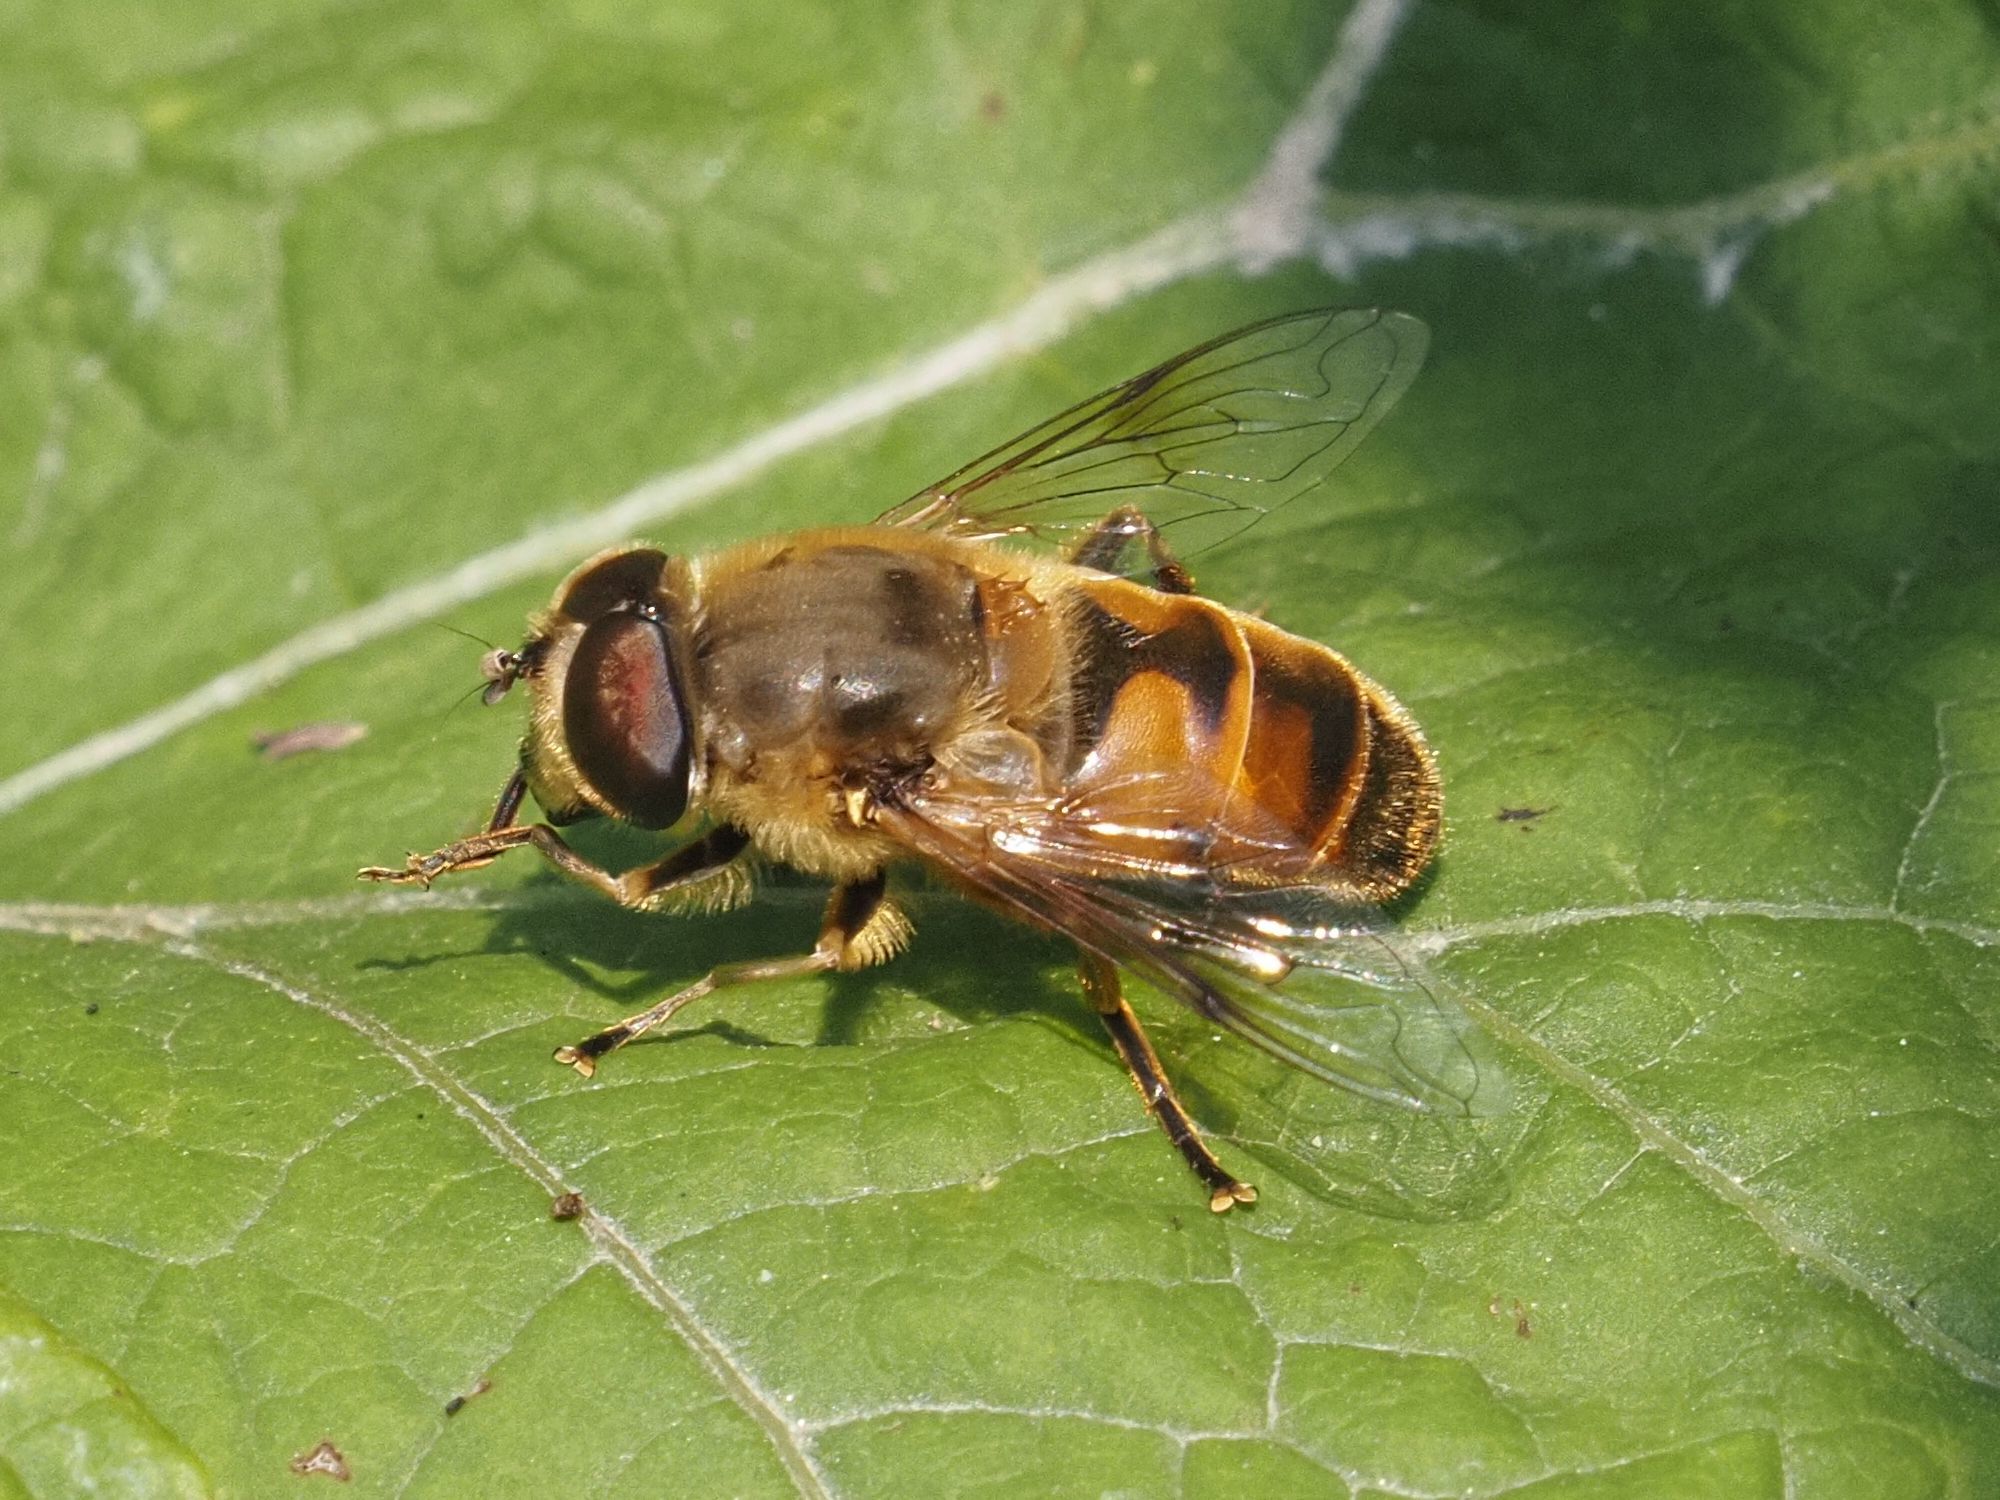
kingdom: Animalia
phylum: Arthropoda
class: Insecta
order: Diptera
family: Syrphidae
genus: Eristalis
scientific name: Eristalis tenax
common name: Drone fly
